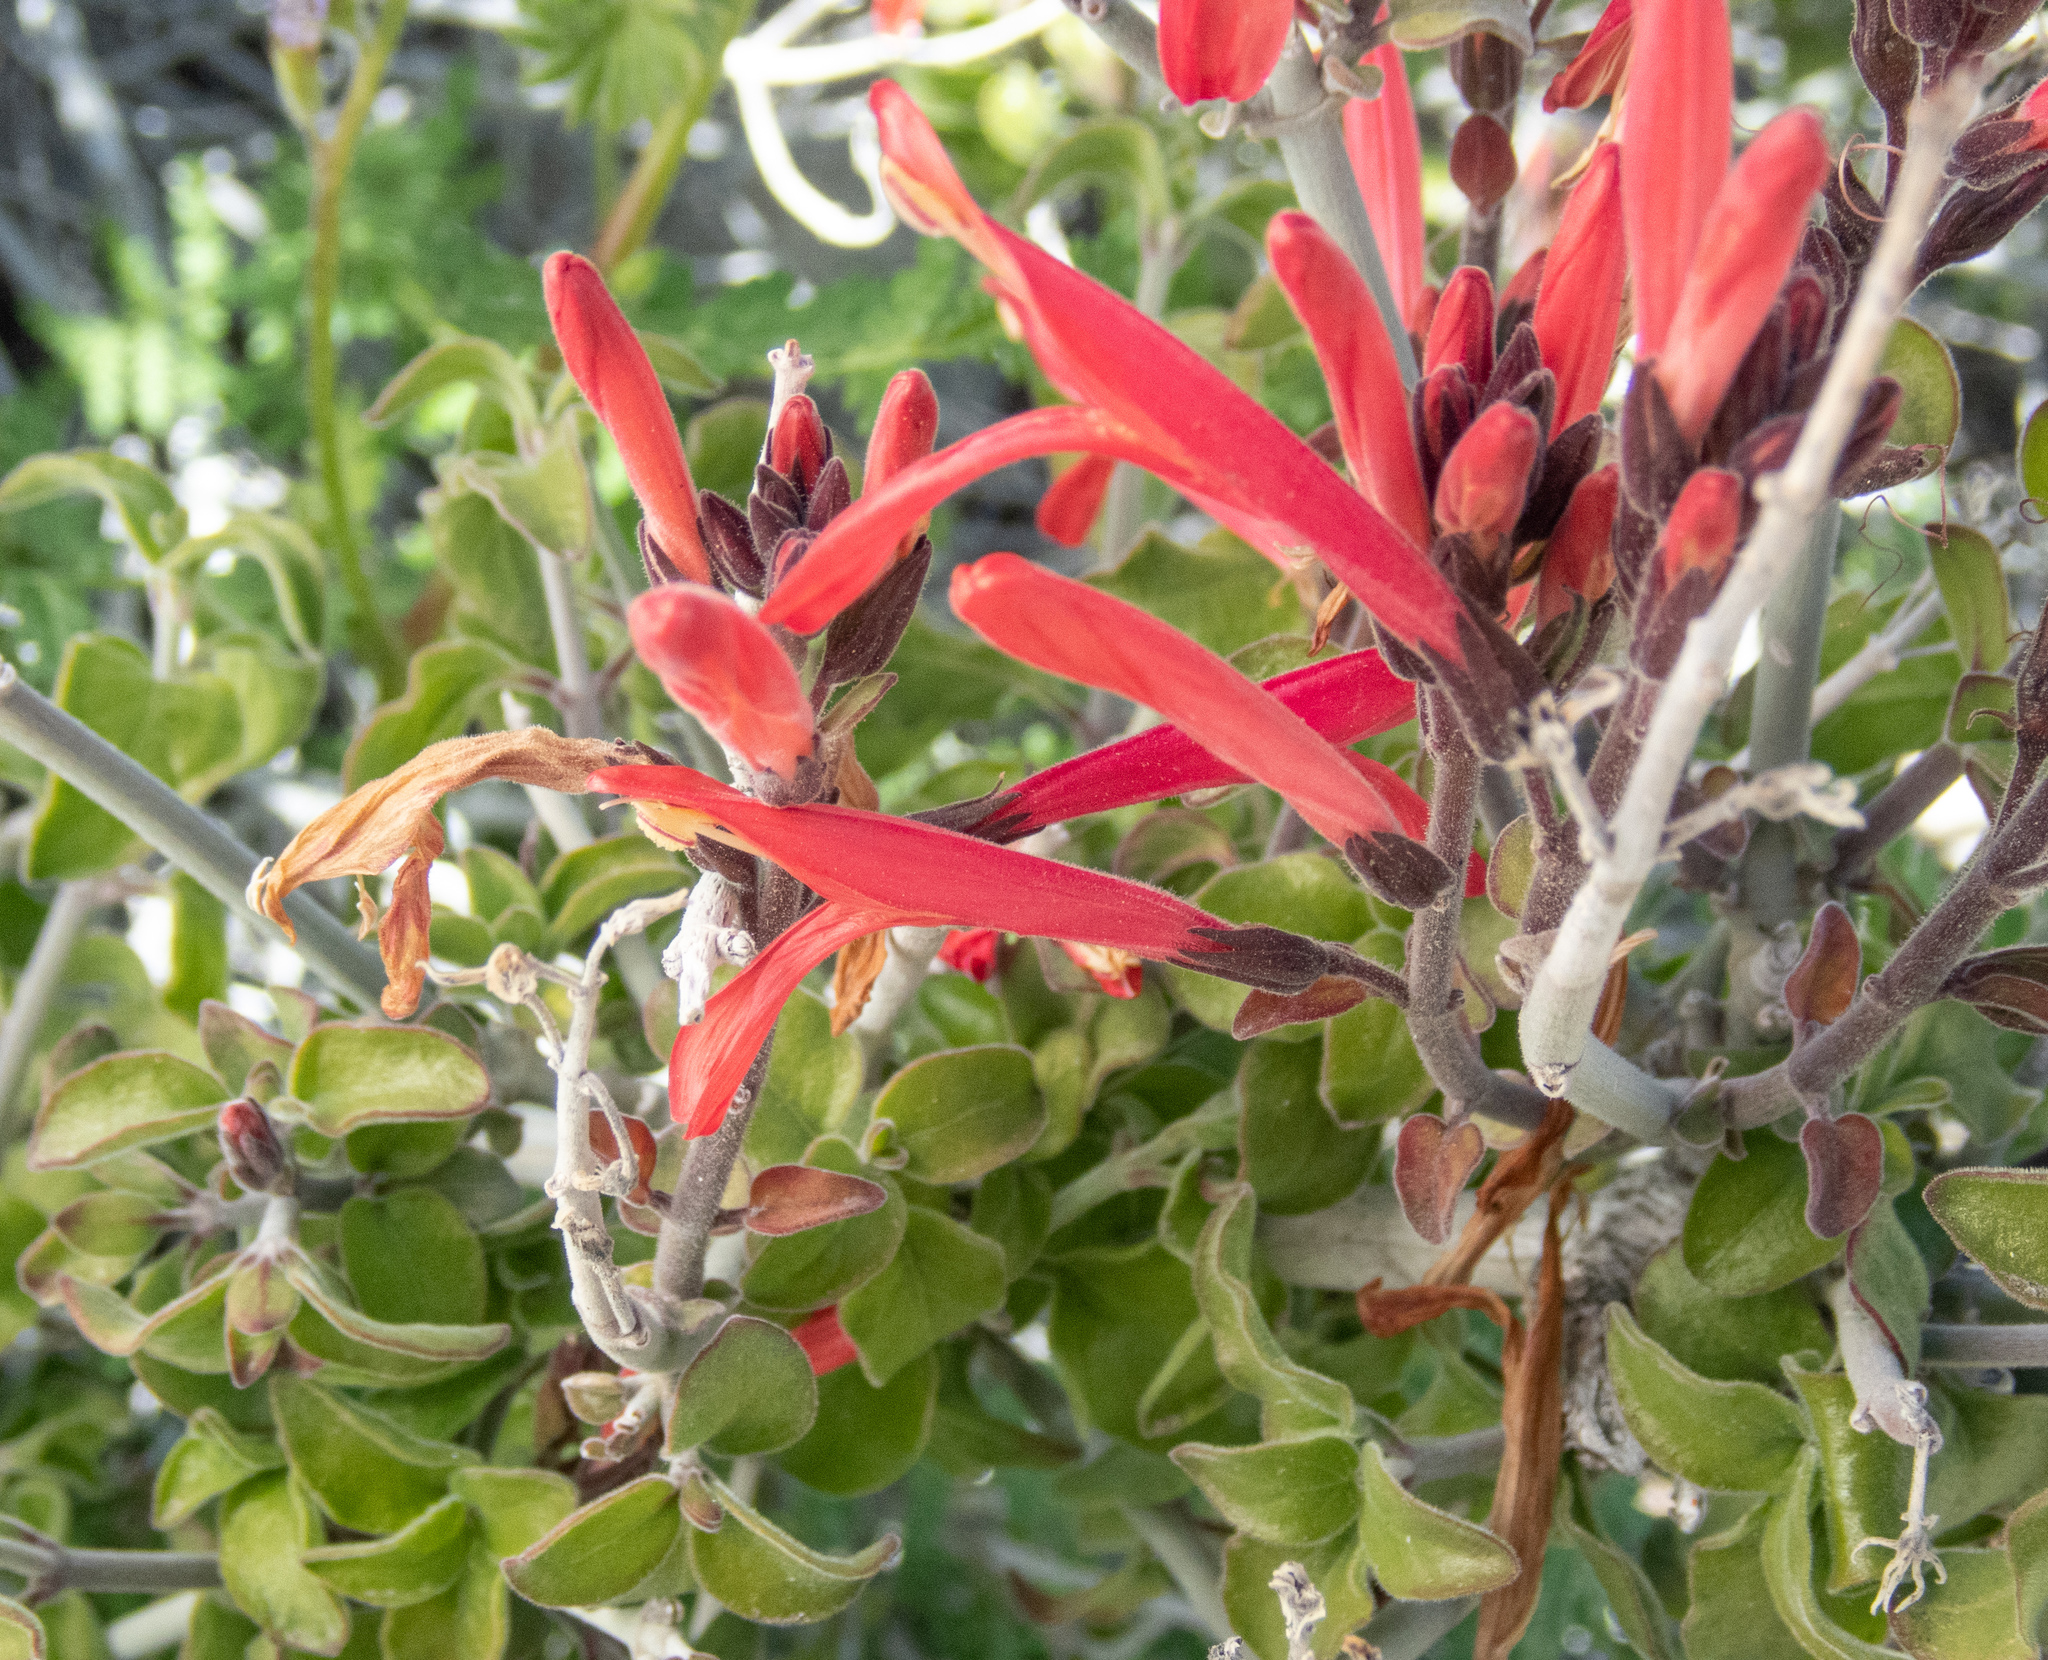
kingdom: Plantae
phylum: Tracheophyta
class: Magnoliopsida
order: Lamiales
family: Acanthaceae
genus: Justicia
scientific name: Justicia californica
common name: Chuparosa-honeysuckle
